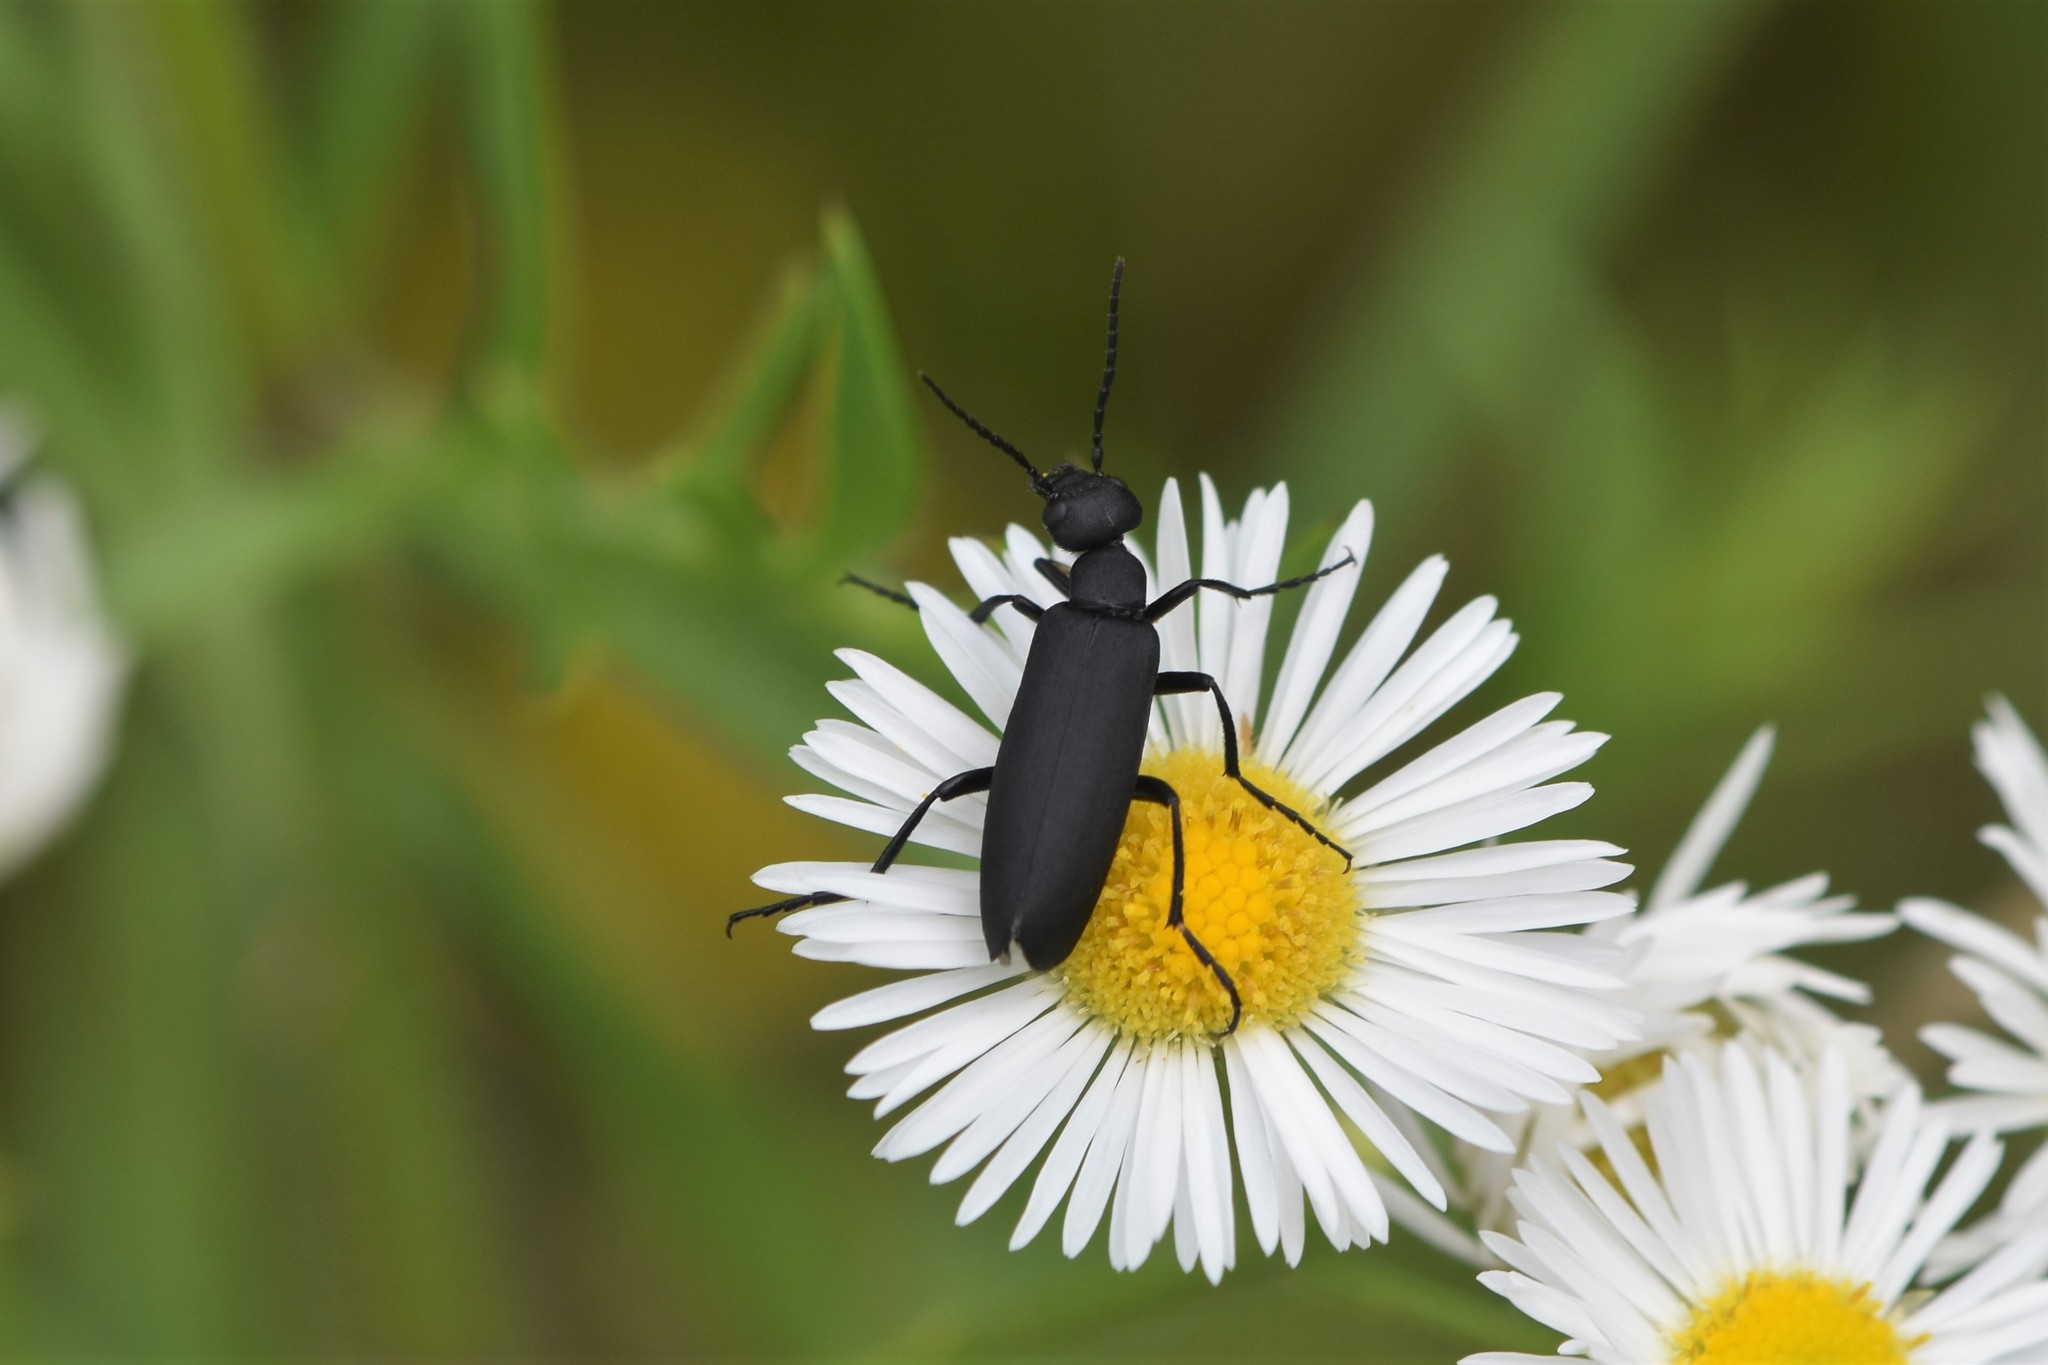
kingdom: Animalia
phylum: Arthropoda
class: Insecta
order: Coleoptera
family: Meloidae
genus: Epicauta
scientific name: Epicauta pensylvanica
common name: Black blister beetle
